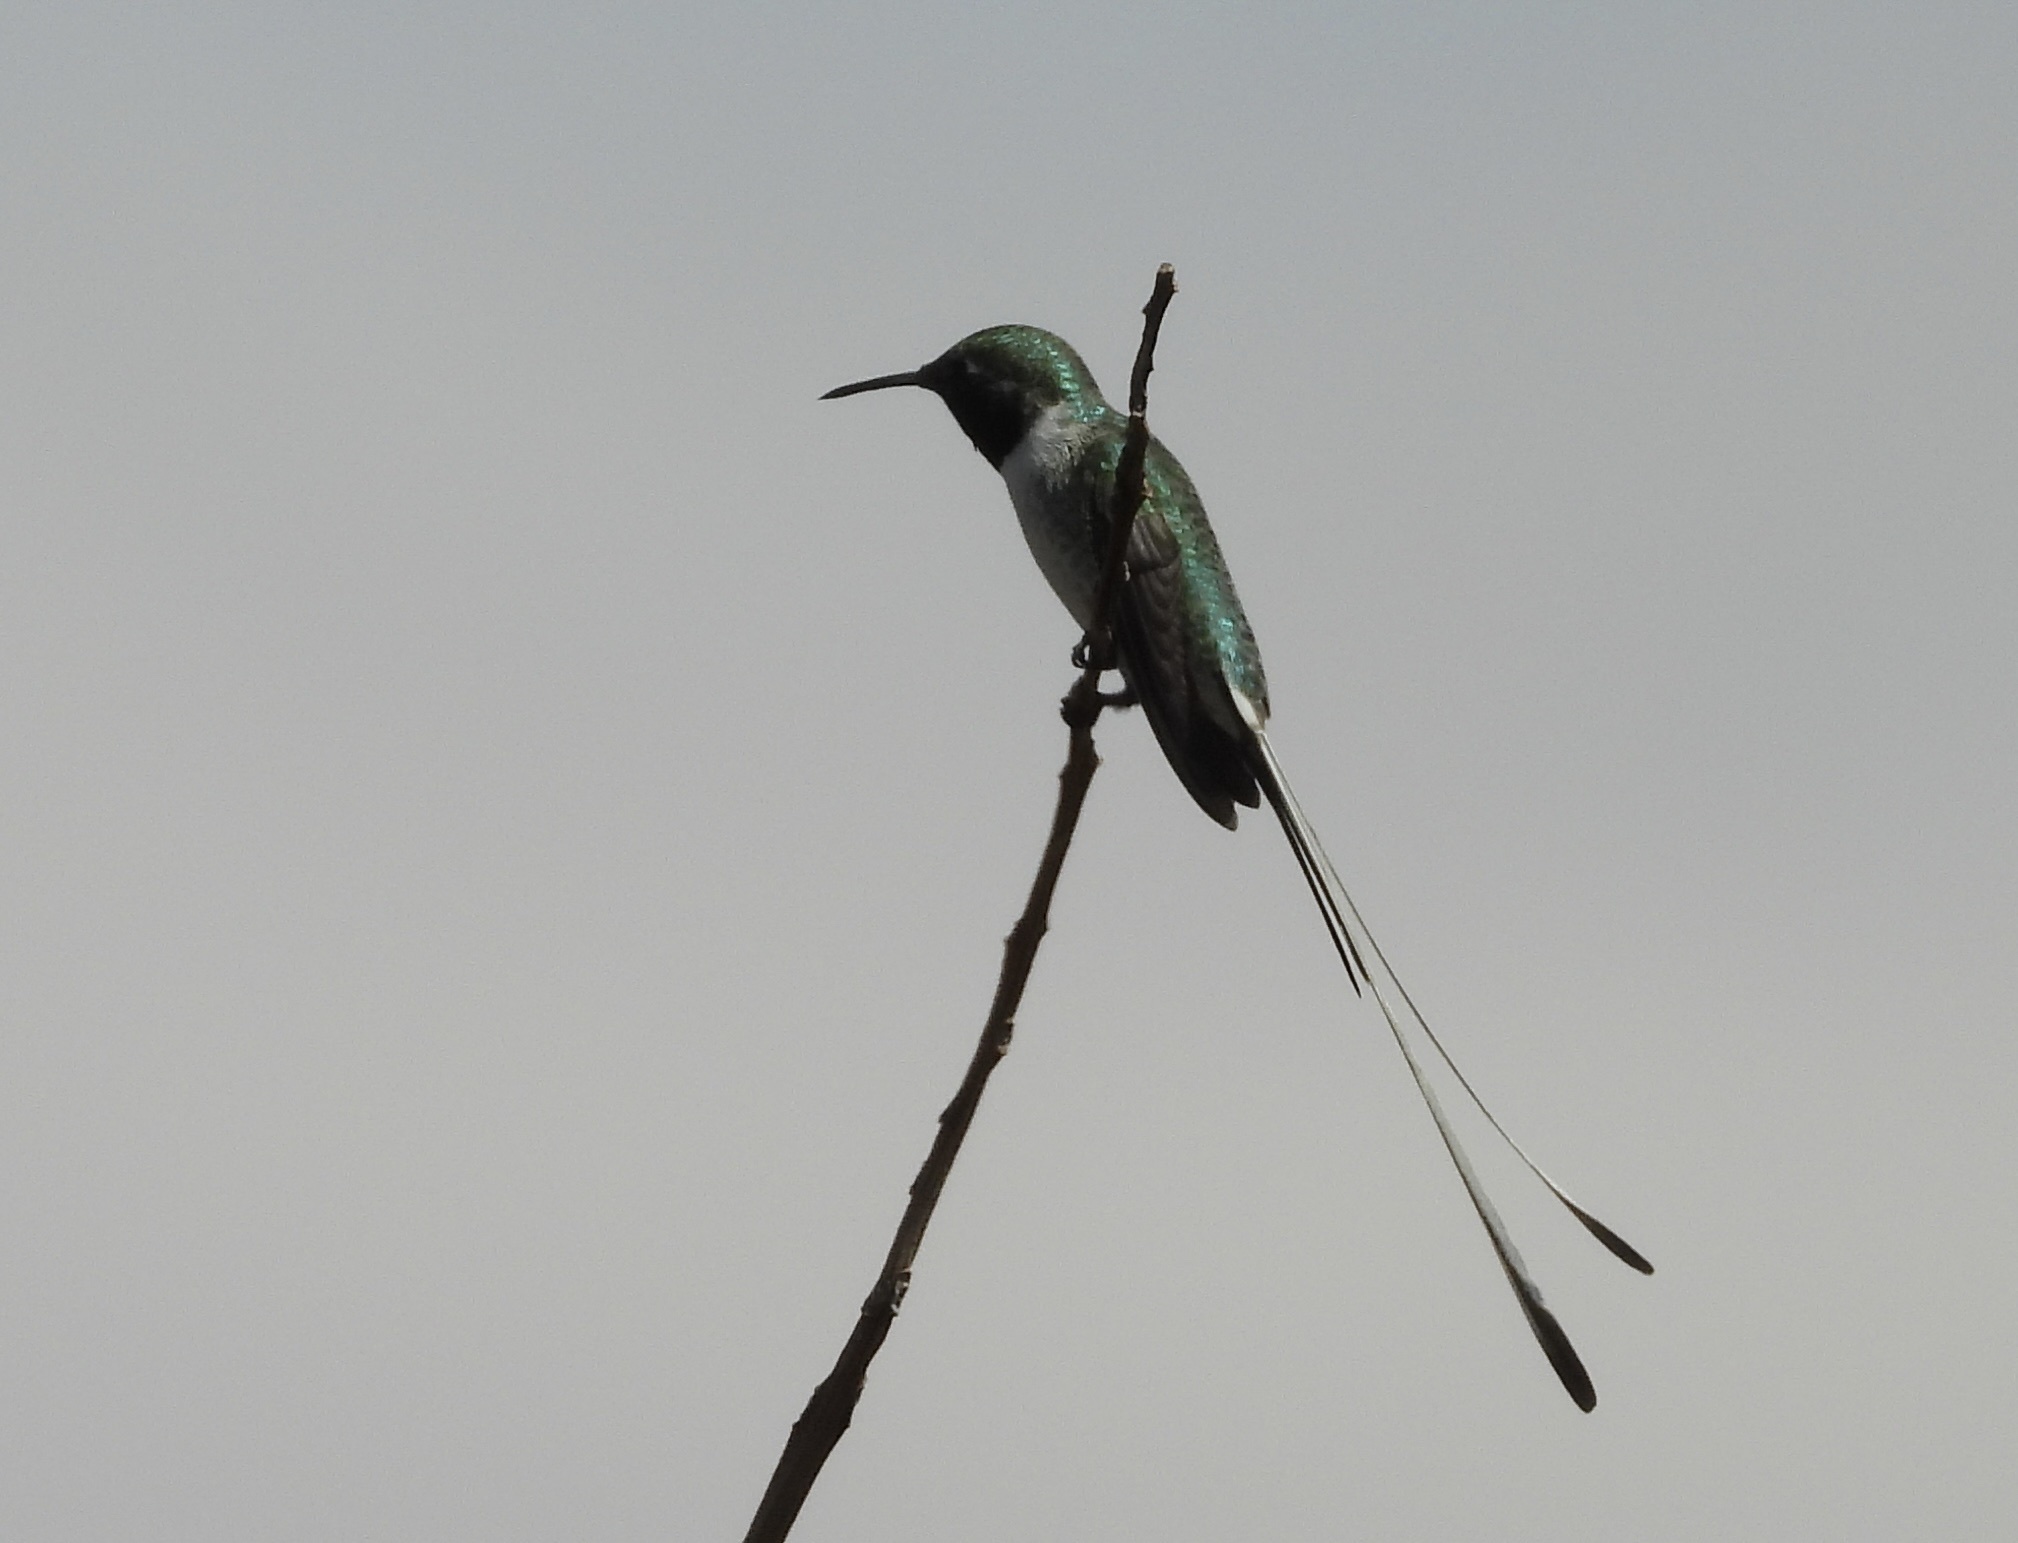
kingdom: Animalia
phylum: Chordata
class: Aves
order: Apodiformes
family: Trochilidae
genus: Thaumastura
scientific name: Thaumastura cora
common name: Peruvian sheartail
